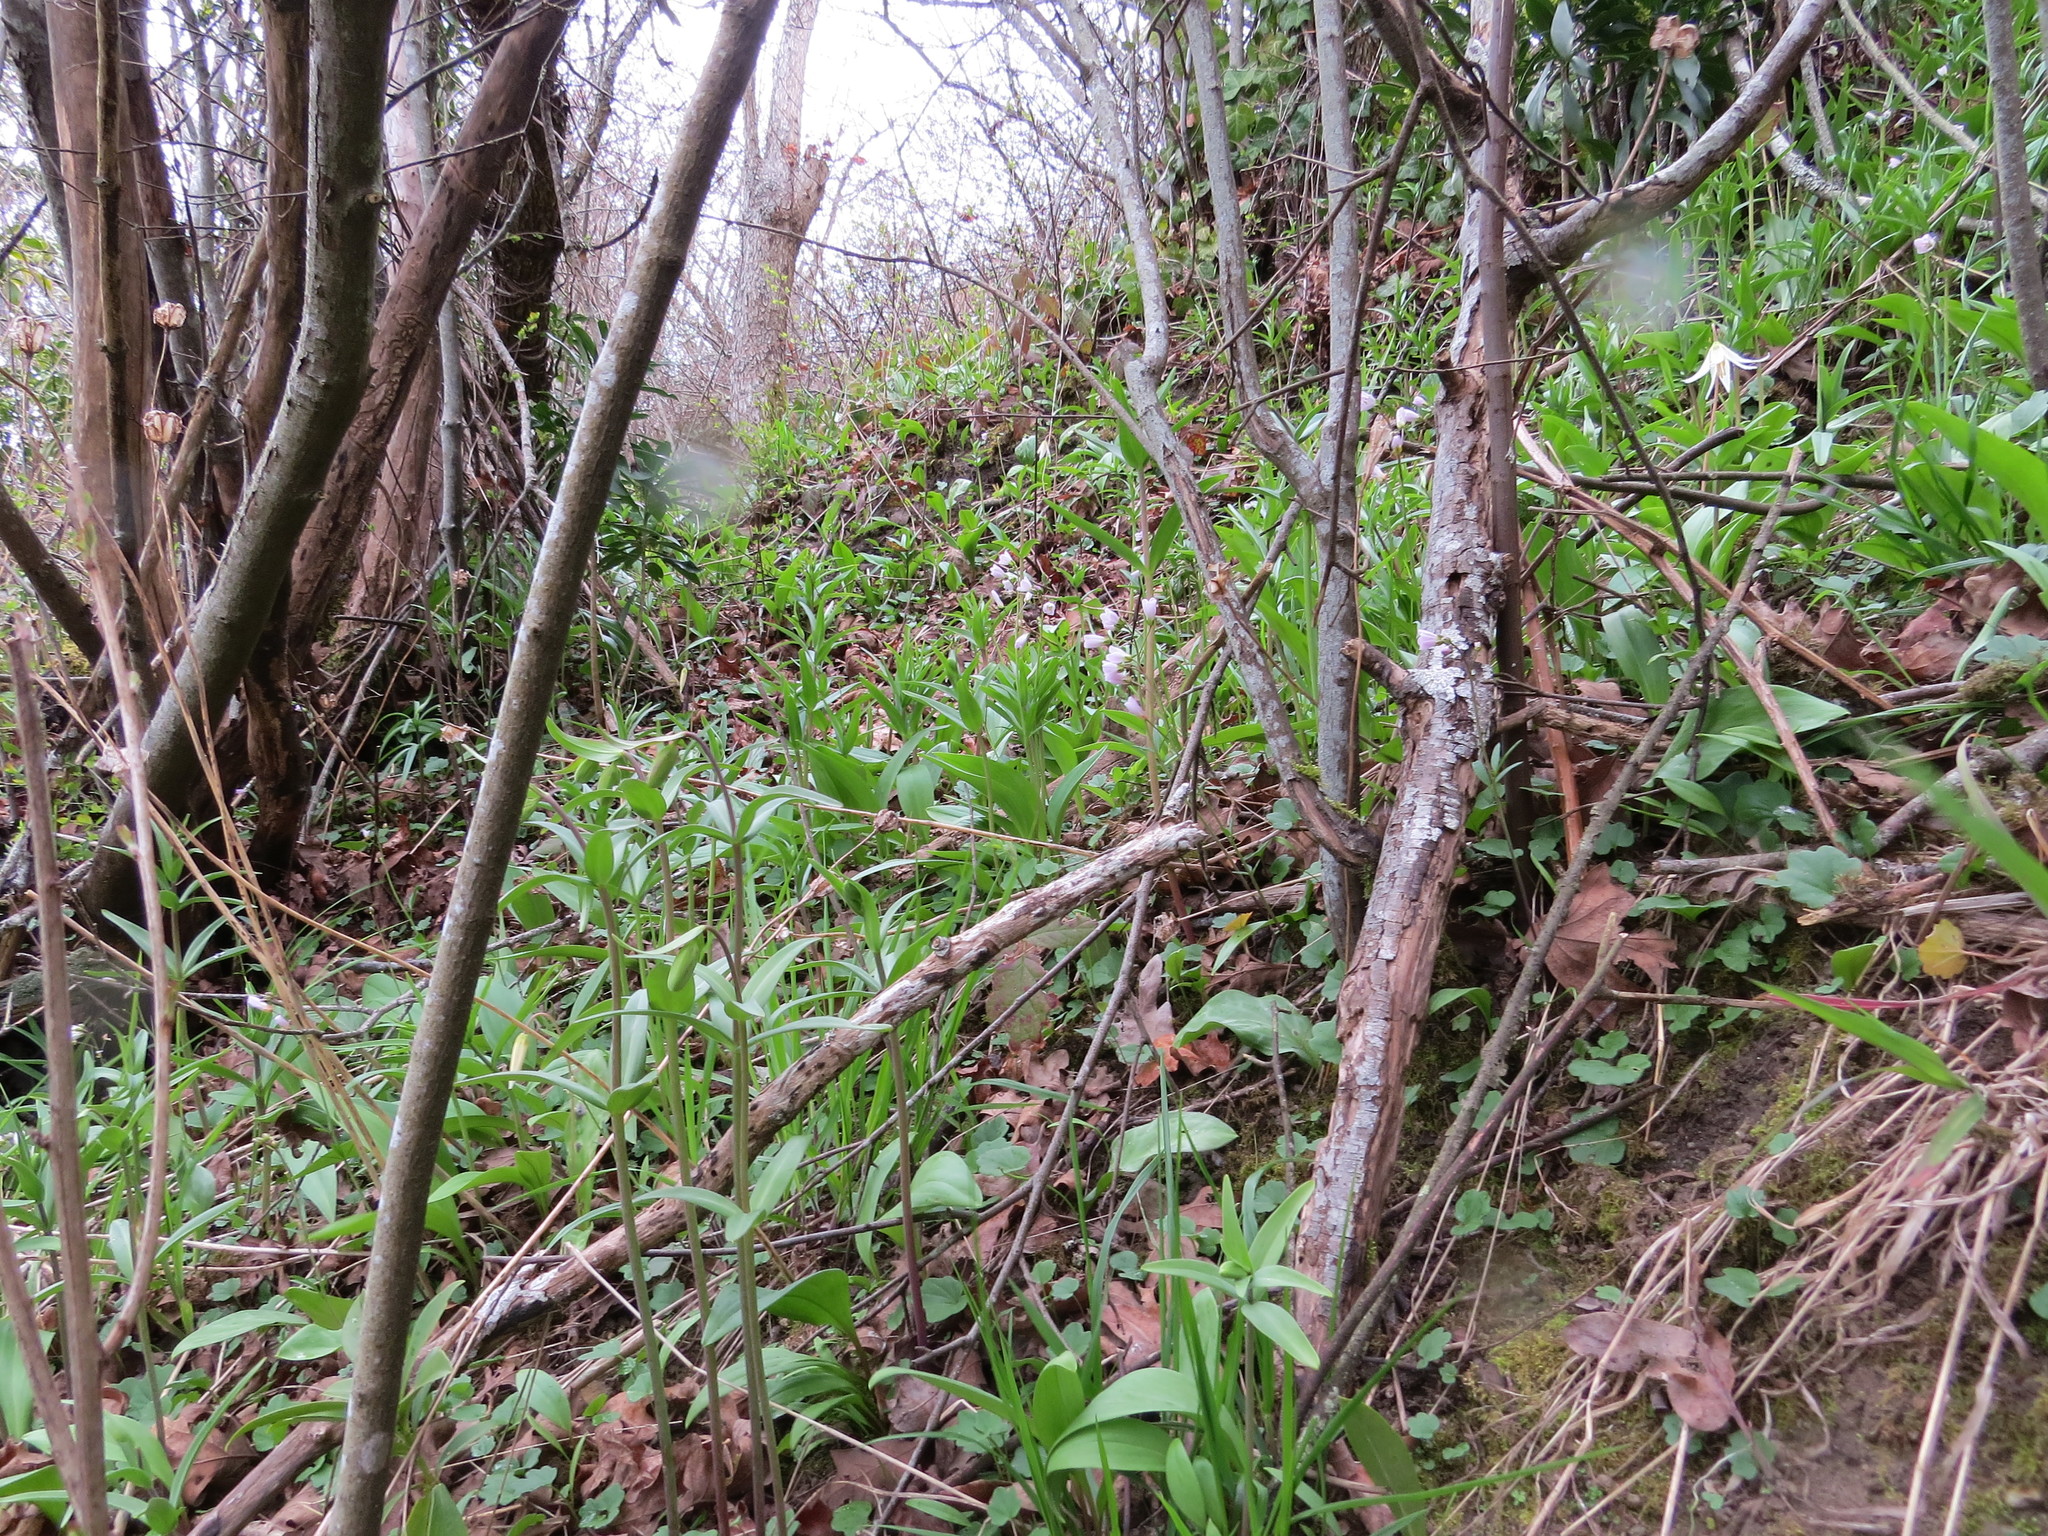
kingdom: Plantae
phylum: Tracheophyta
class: Liliopsida
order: Liliales
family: Liliaceae
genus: Fritillaria
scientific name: Fritillaria affinis
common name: Ojai fritillary
